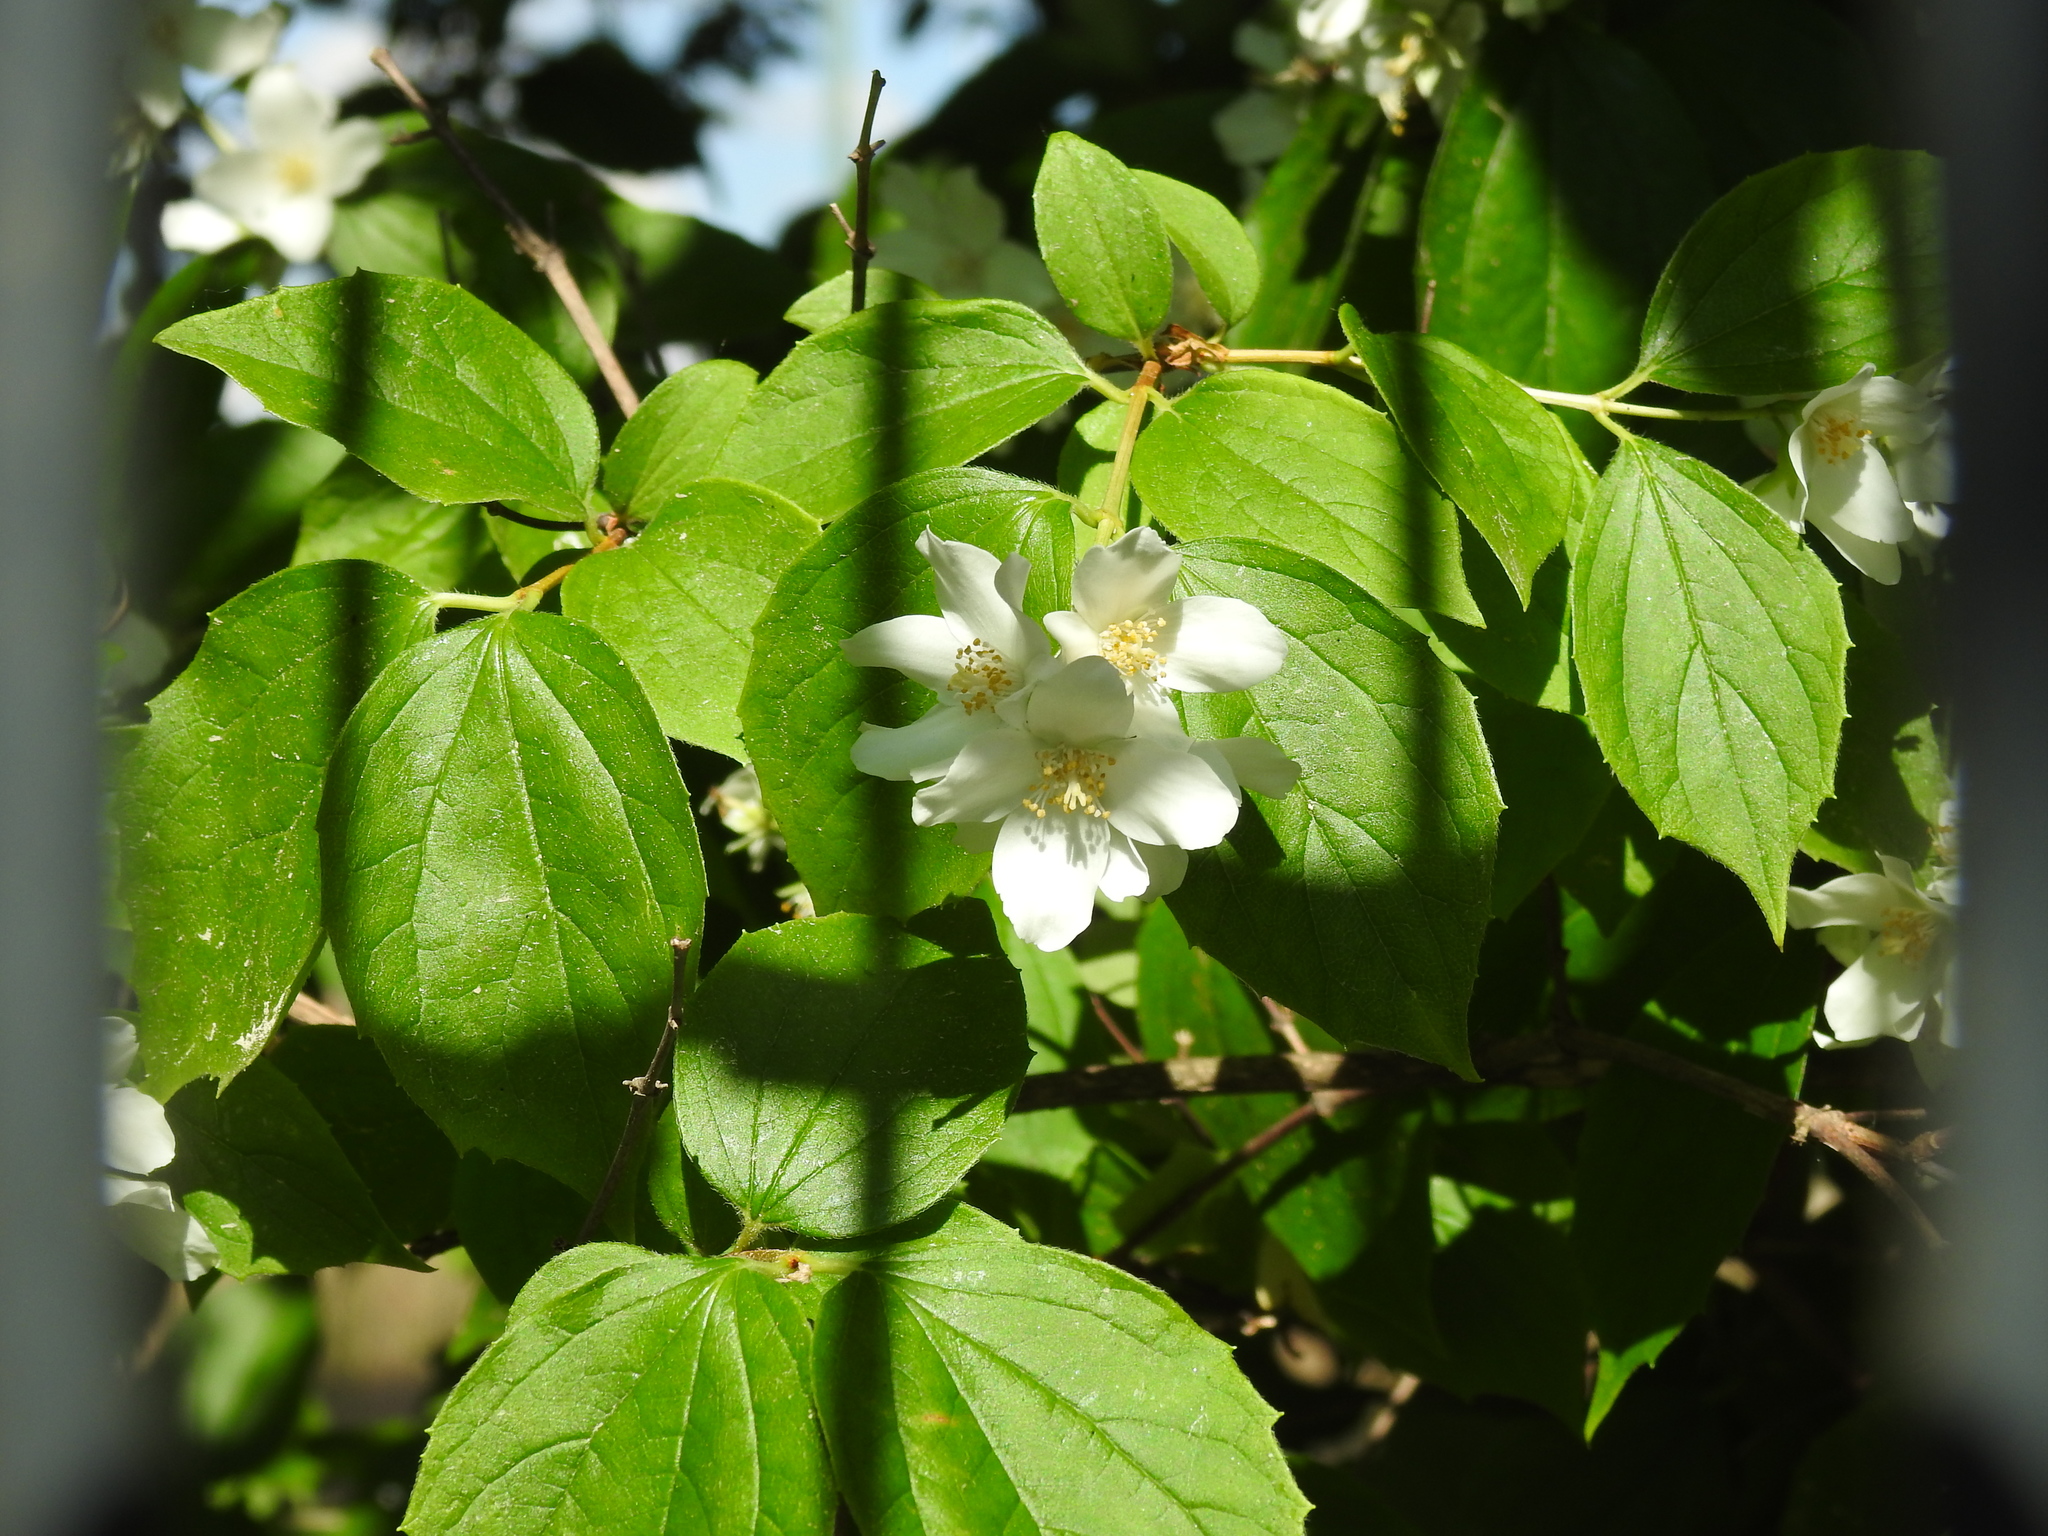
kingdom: Plantae
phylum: Tracheophyta
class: Magnoliopsida
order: Cornales
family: Hydrangeaceae
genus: Philadelphus
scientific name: Philadelphus coronarius
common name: Mock orange
